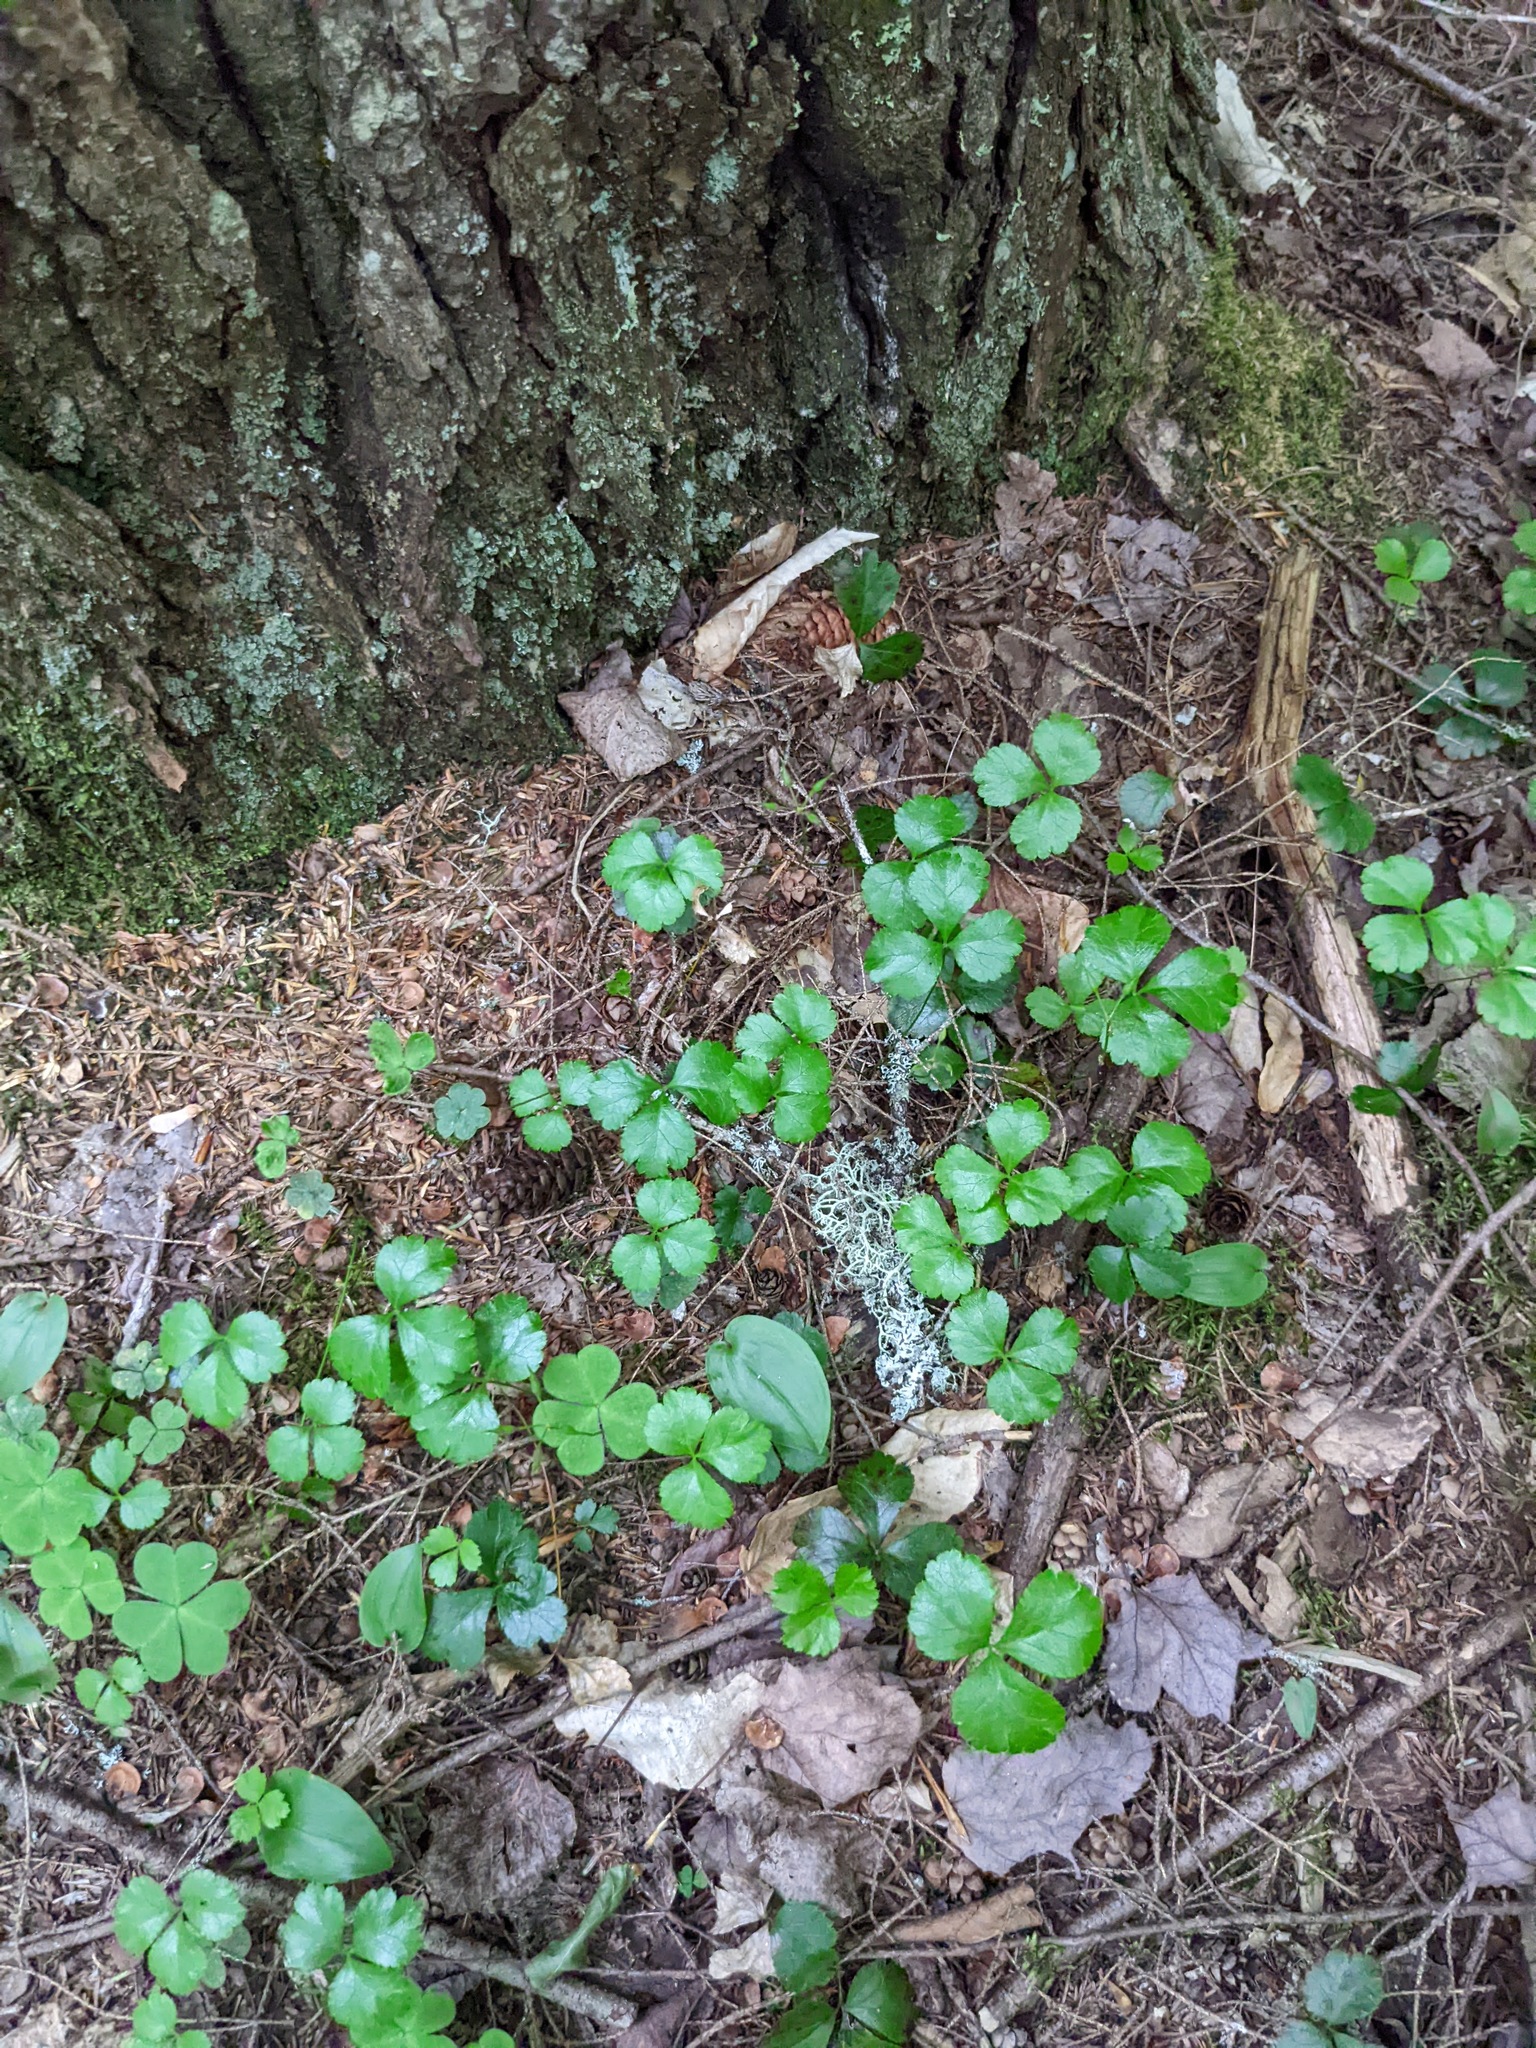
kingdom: Plantae
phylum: Tracheophyta
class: Magnoliopsida
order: Ranunculales
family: Ranunculaceae
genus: Coptis
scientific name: Coptis trifolia
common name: Canker-root
